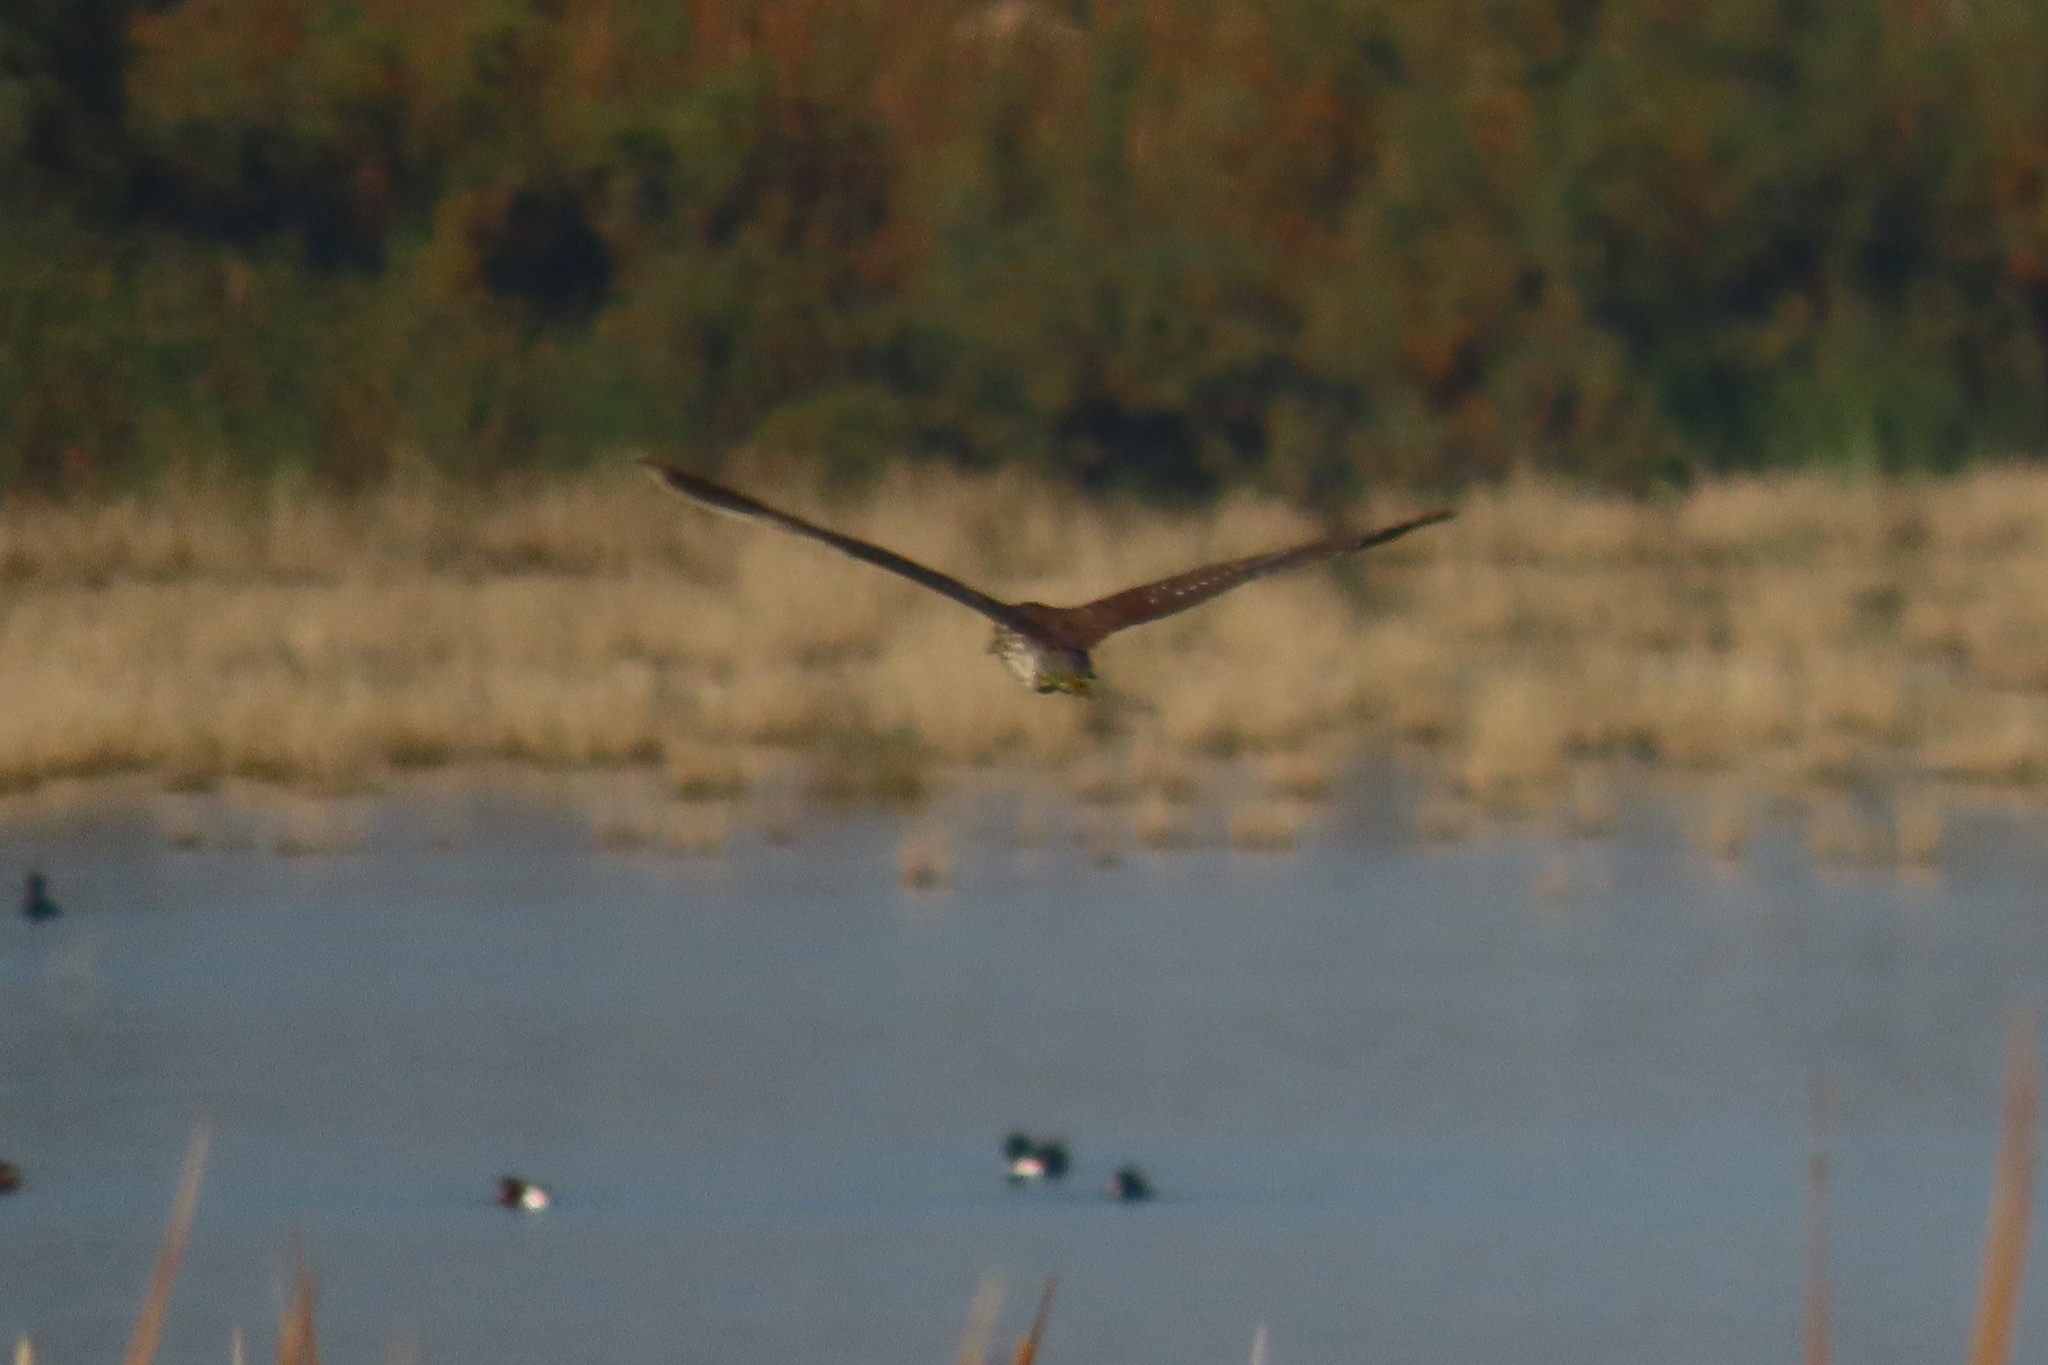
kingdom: Animalia
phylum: Chordata
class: Aves
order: Pelecaniformes
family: Ardeidae
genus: Nycticorax
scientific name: Nycticorax nycticorax
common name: Black-crowned night heron
